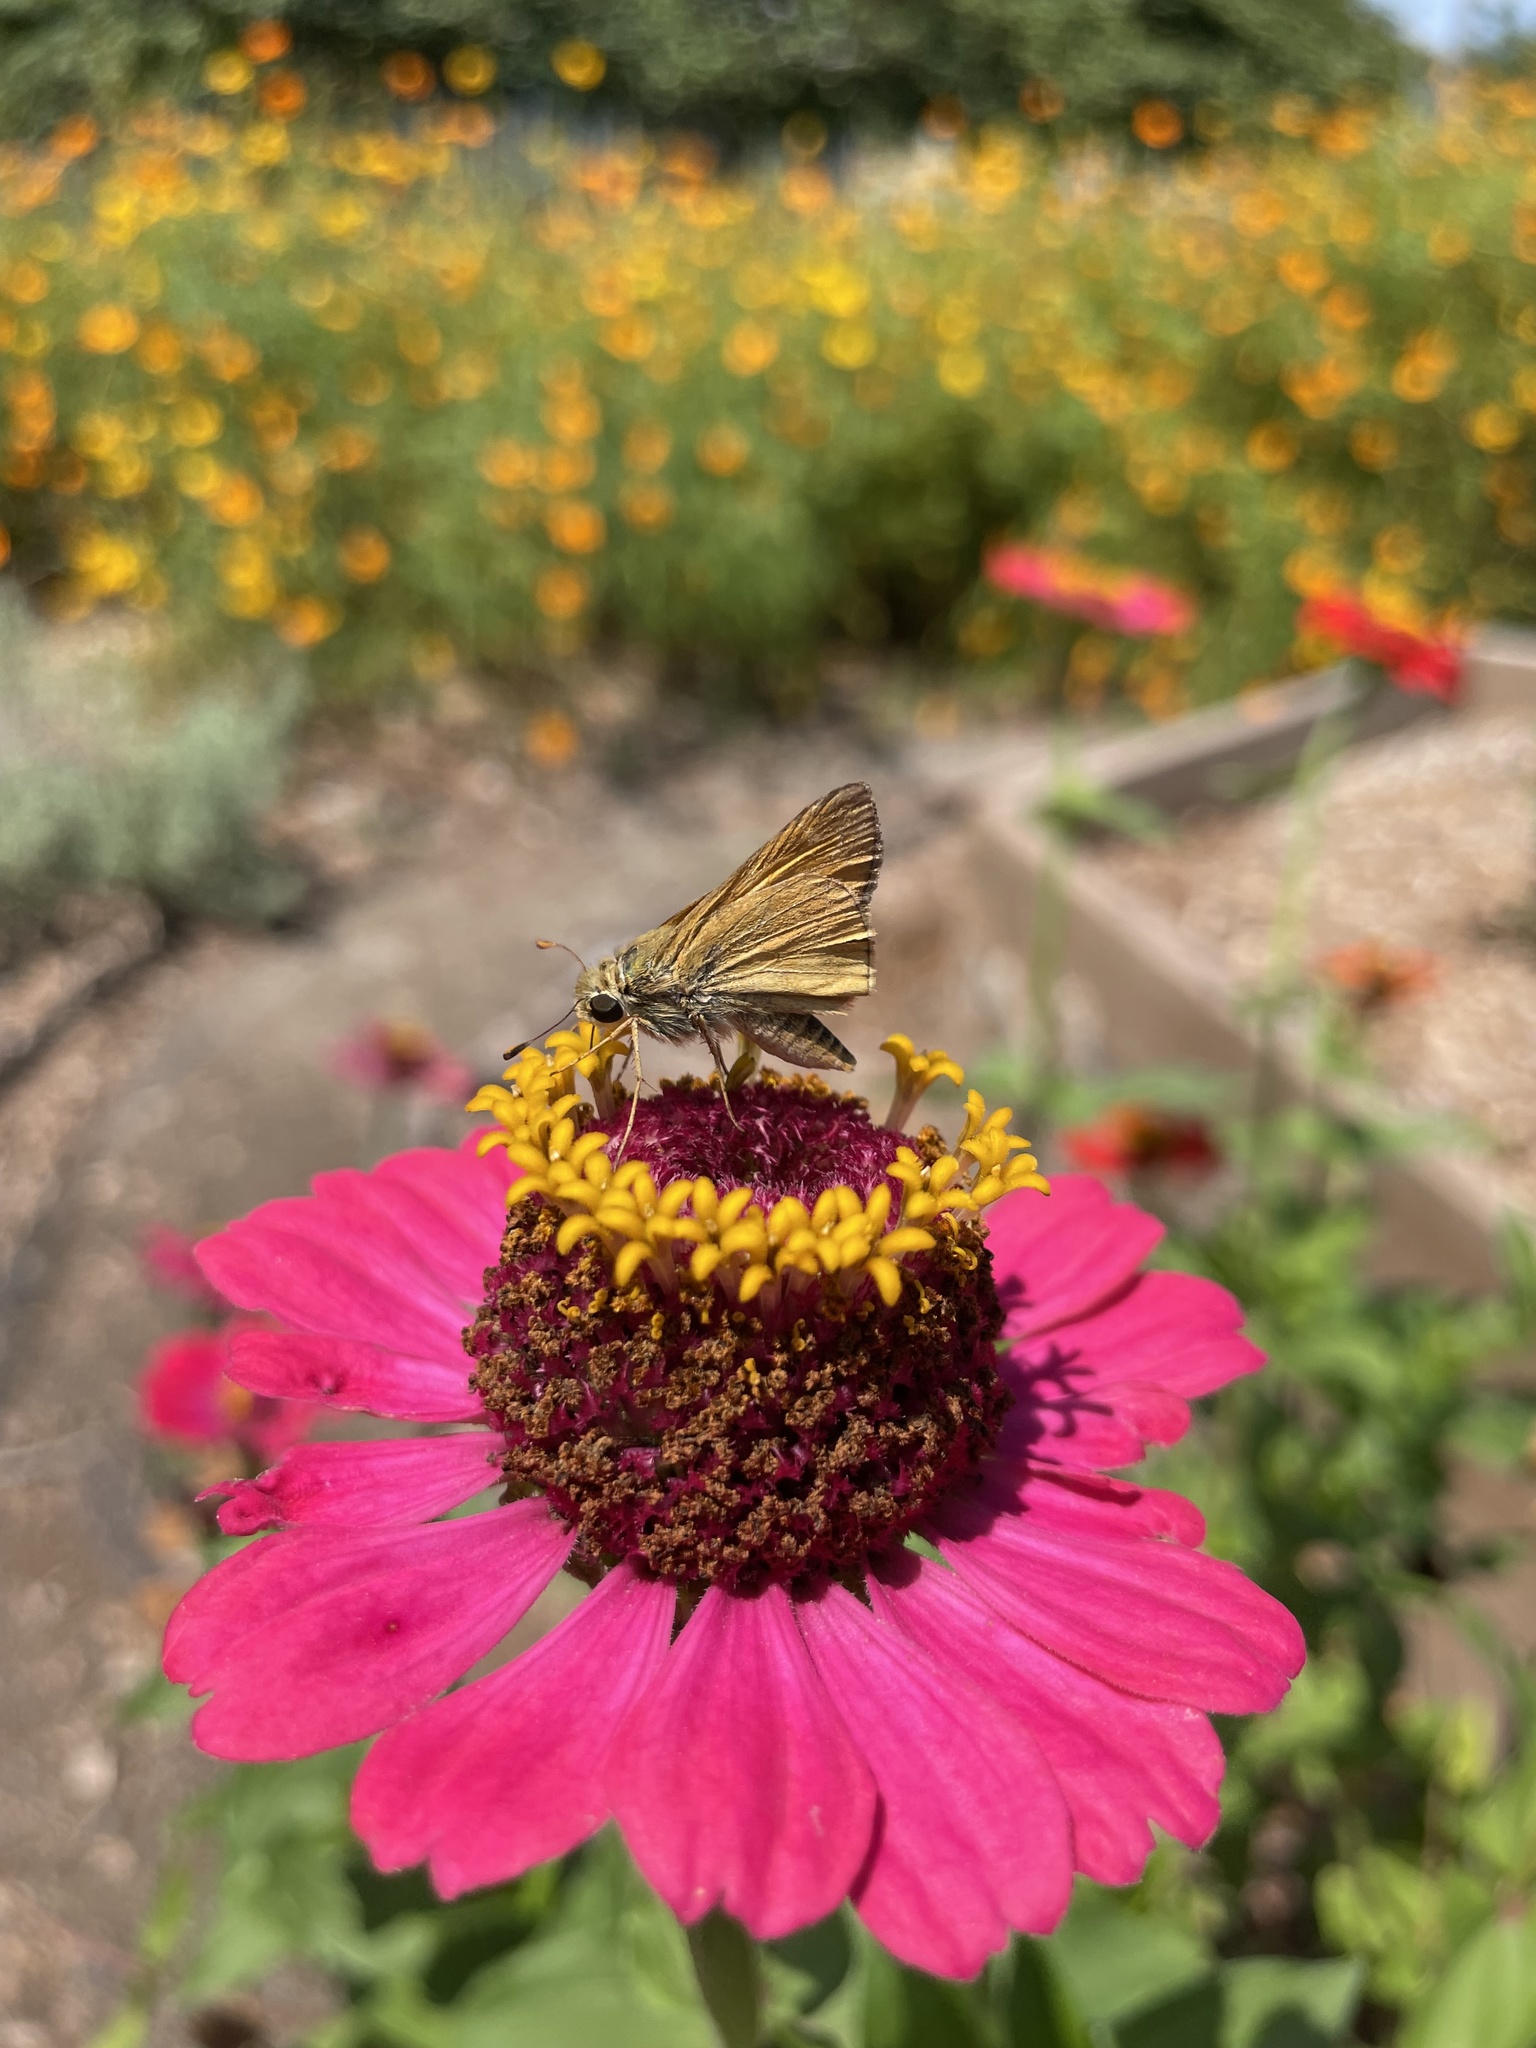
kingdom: Animalia
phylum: Arthropoda
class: Insecta
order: Lepidoptera
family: Hesperiidae
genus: Atalopedes
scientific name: Atalopedes
